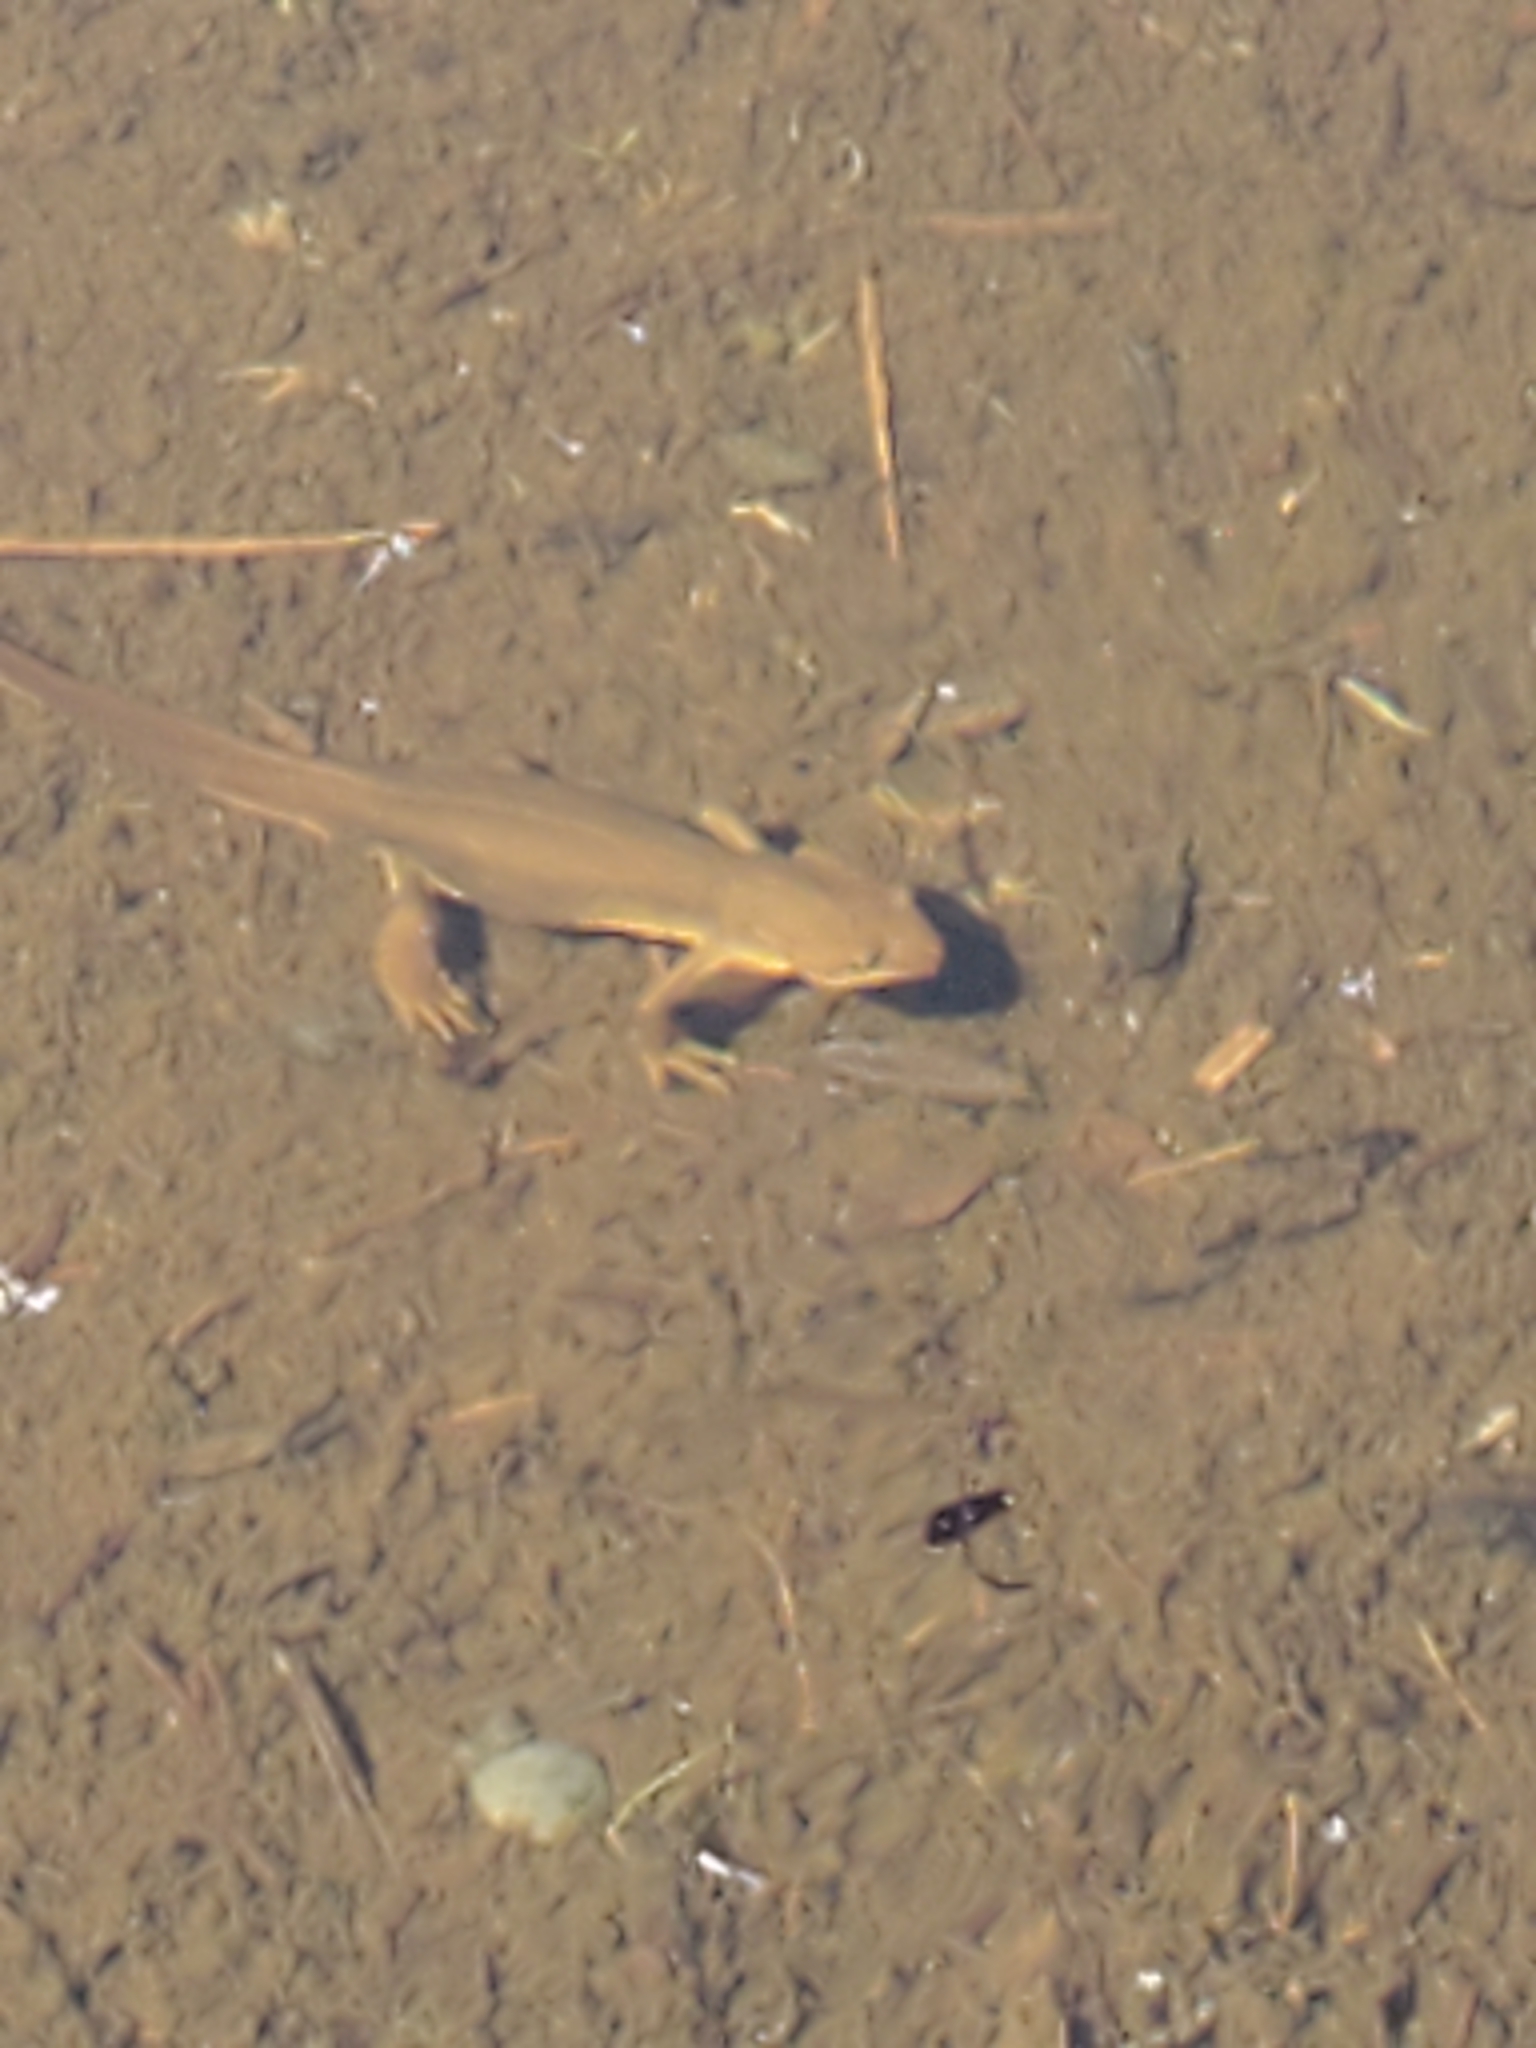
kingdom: Animalia
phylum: Chordata
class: Amphibia
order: Caudata
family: Salamandridae
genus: Taricha
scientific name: Taricha granulosa
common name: Roughskin newt
